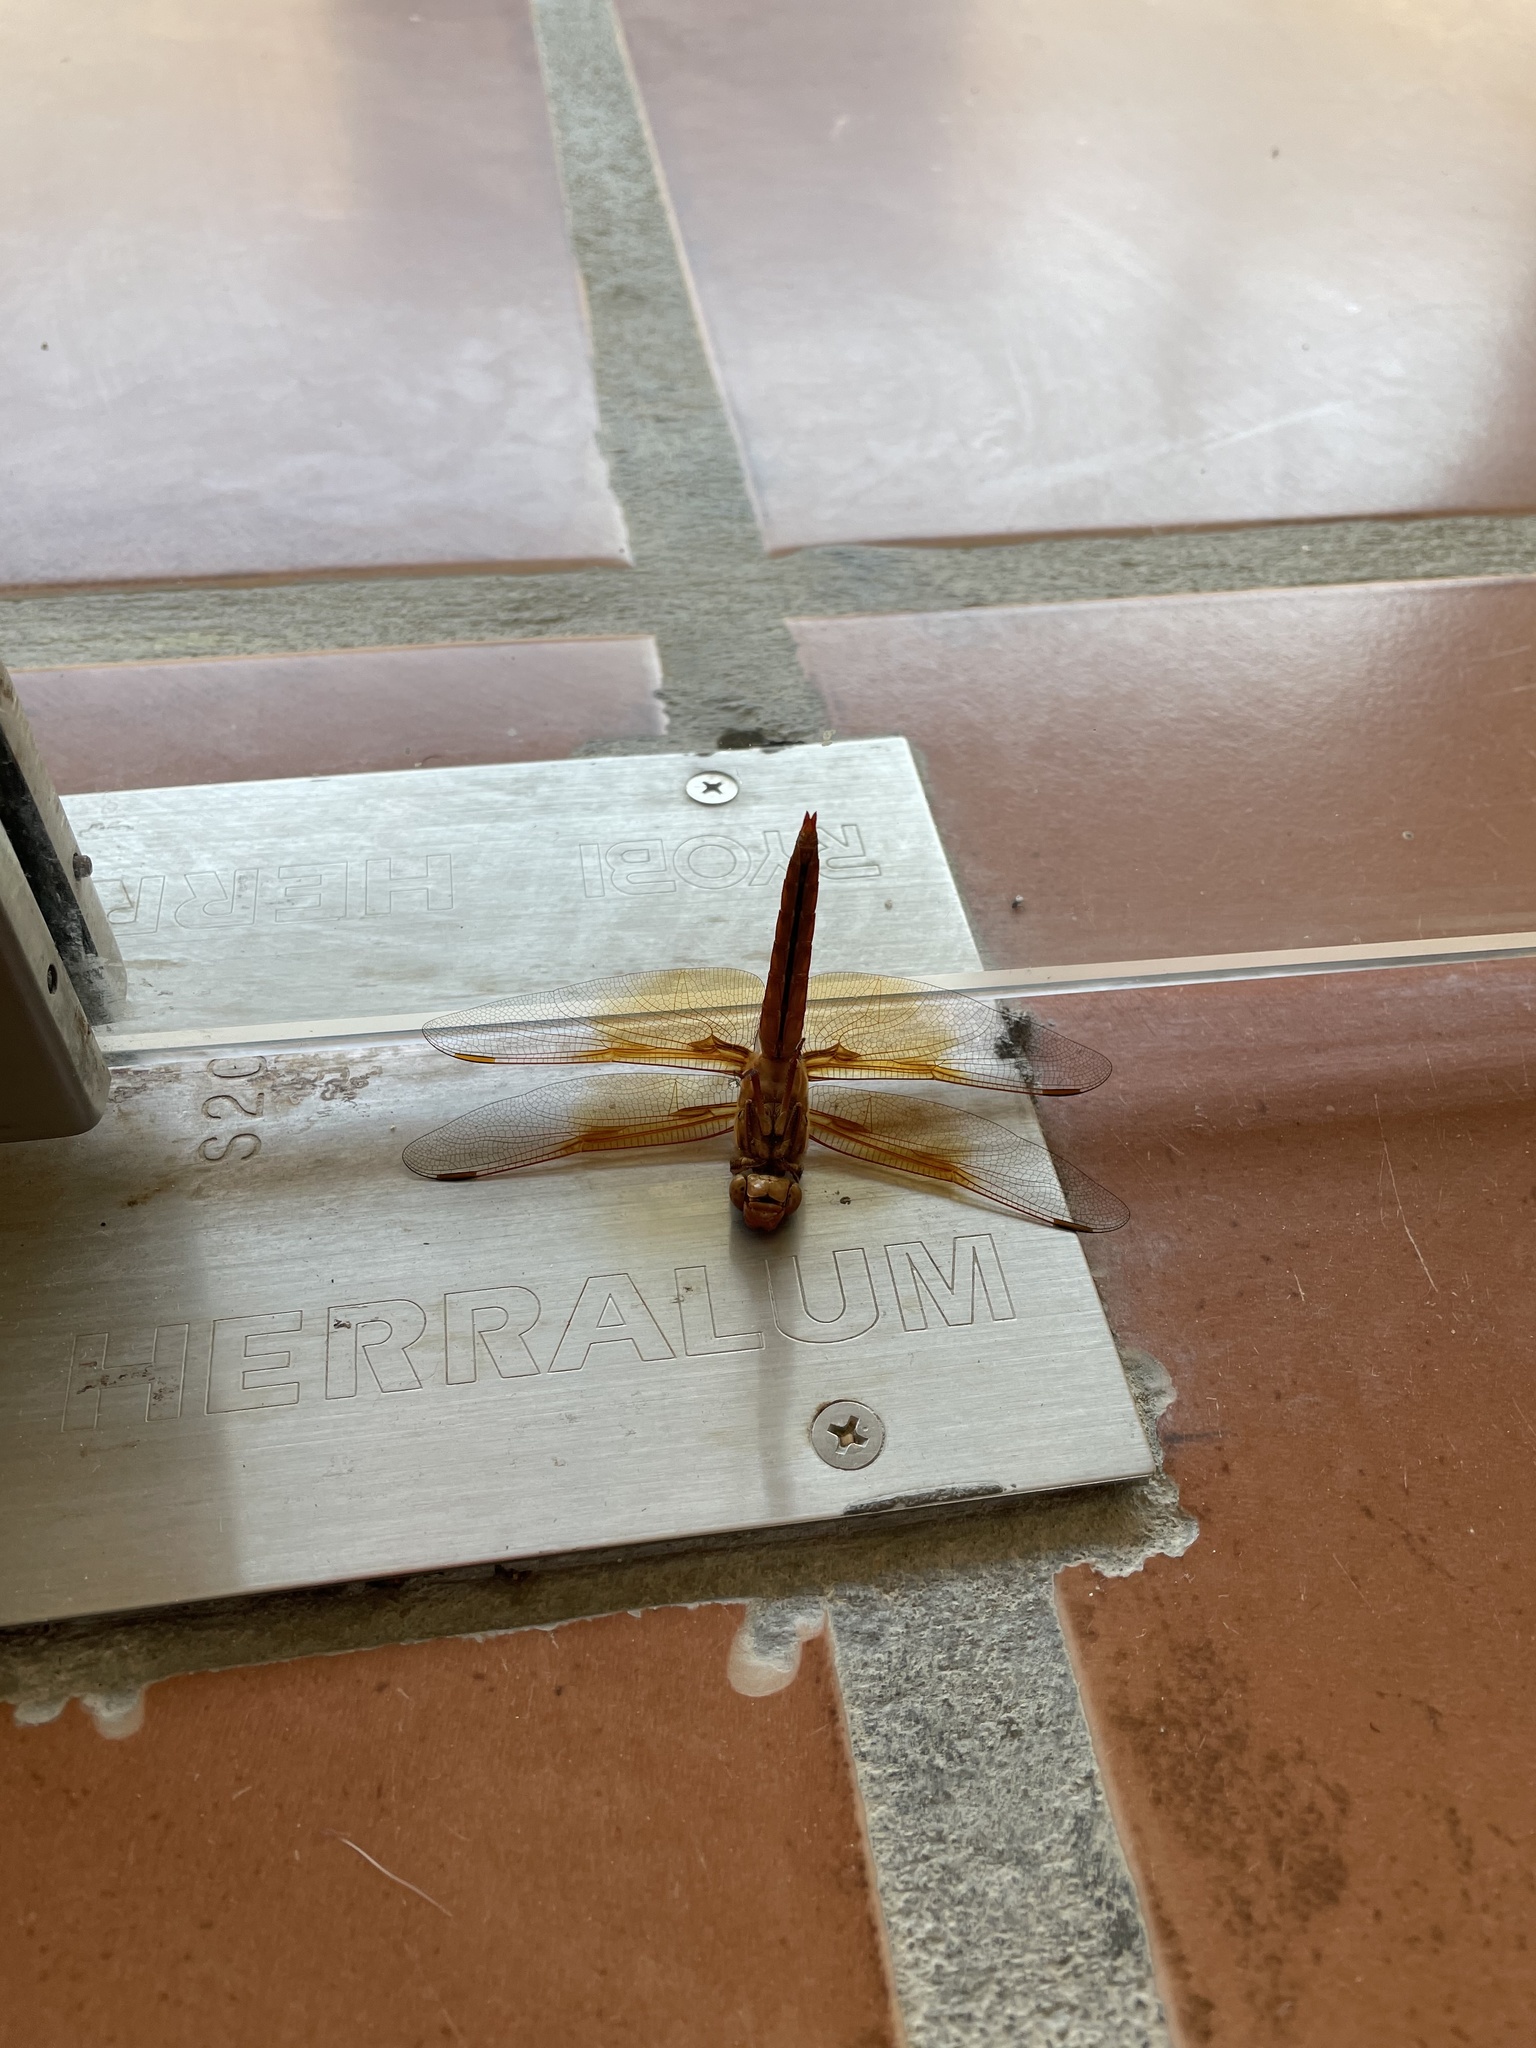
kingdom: Animalia
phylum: Arthropoda
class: Insecta
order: Odonata
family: Libellulidae
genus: Libellula
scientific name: Libellula saturata
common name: Flame skimmer
